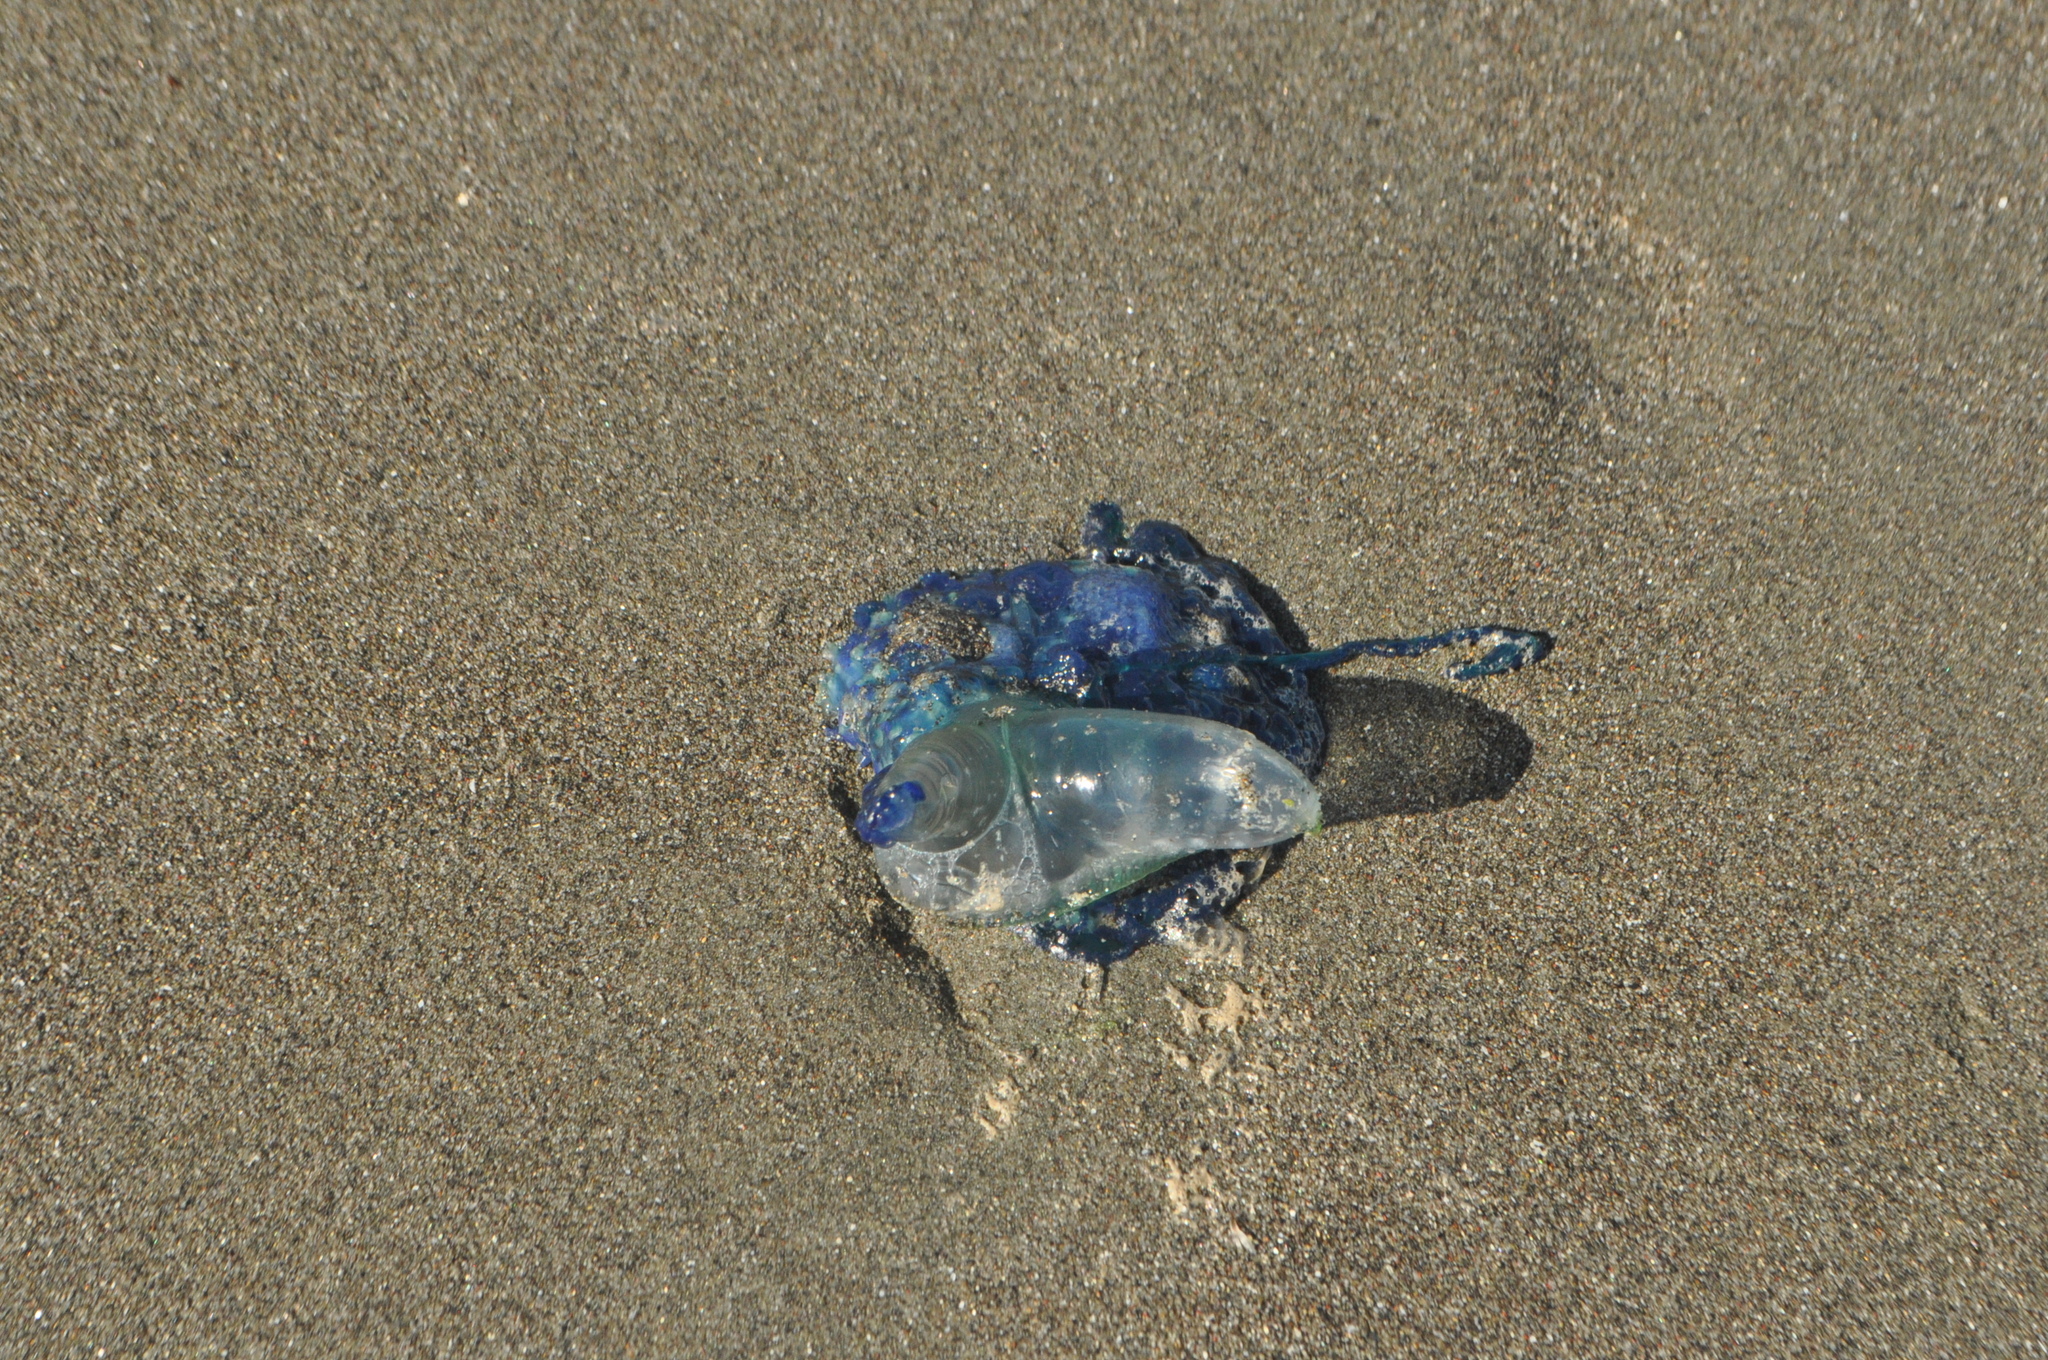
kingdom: Animalia
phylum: Cnidaria
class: Hydrozoa
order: Siphonophorae
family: Physaliidae
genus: Physalia
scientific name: Physalia physalis
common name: Portuguese man-of-war
